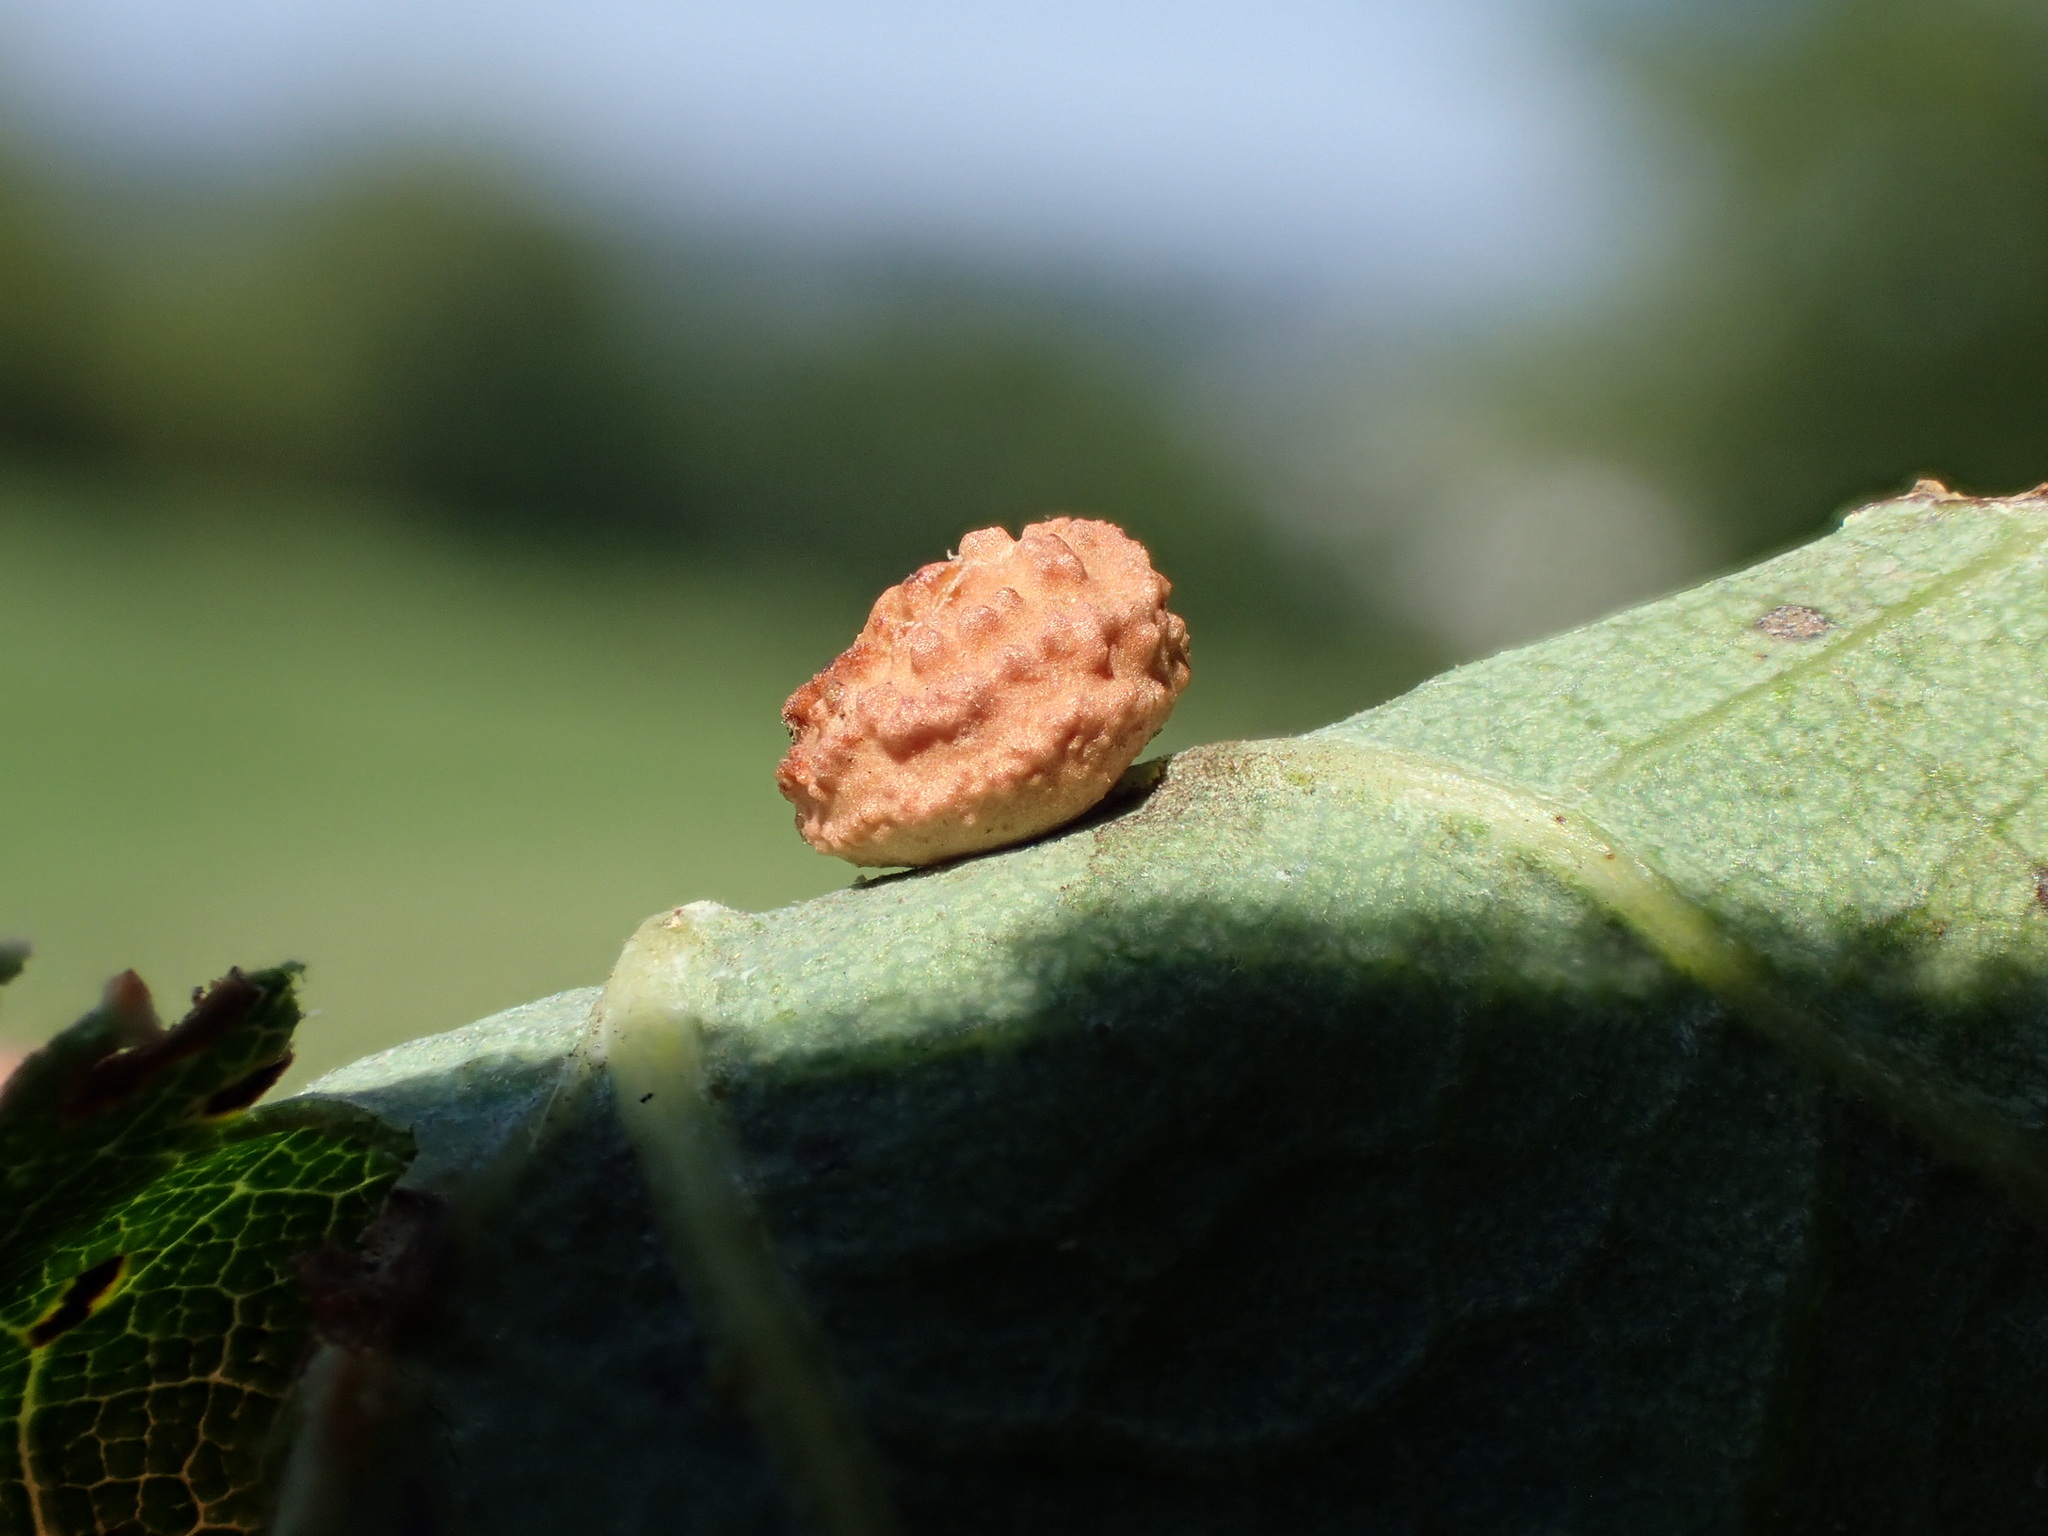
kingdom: Animalia
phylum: Arthropoda
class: Insecta
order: Hymenoptera
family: Cynipidae
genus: Cynips
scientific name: Cynips quercusfolii
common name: Cherry gall
